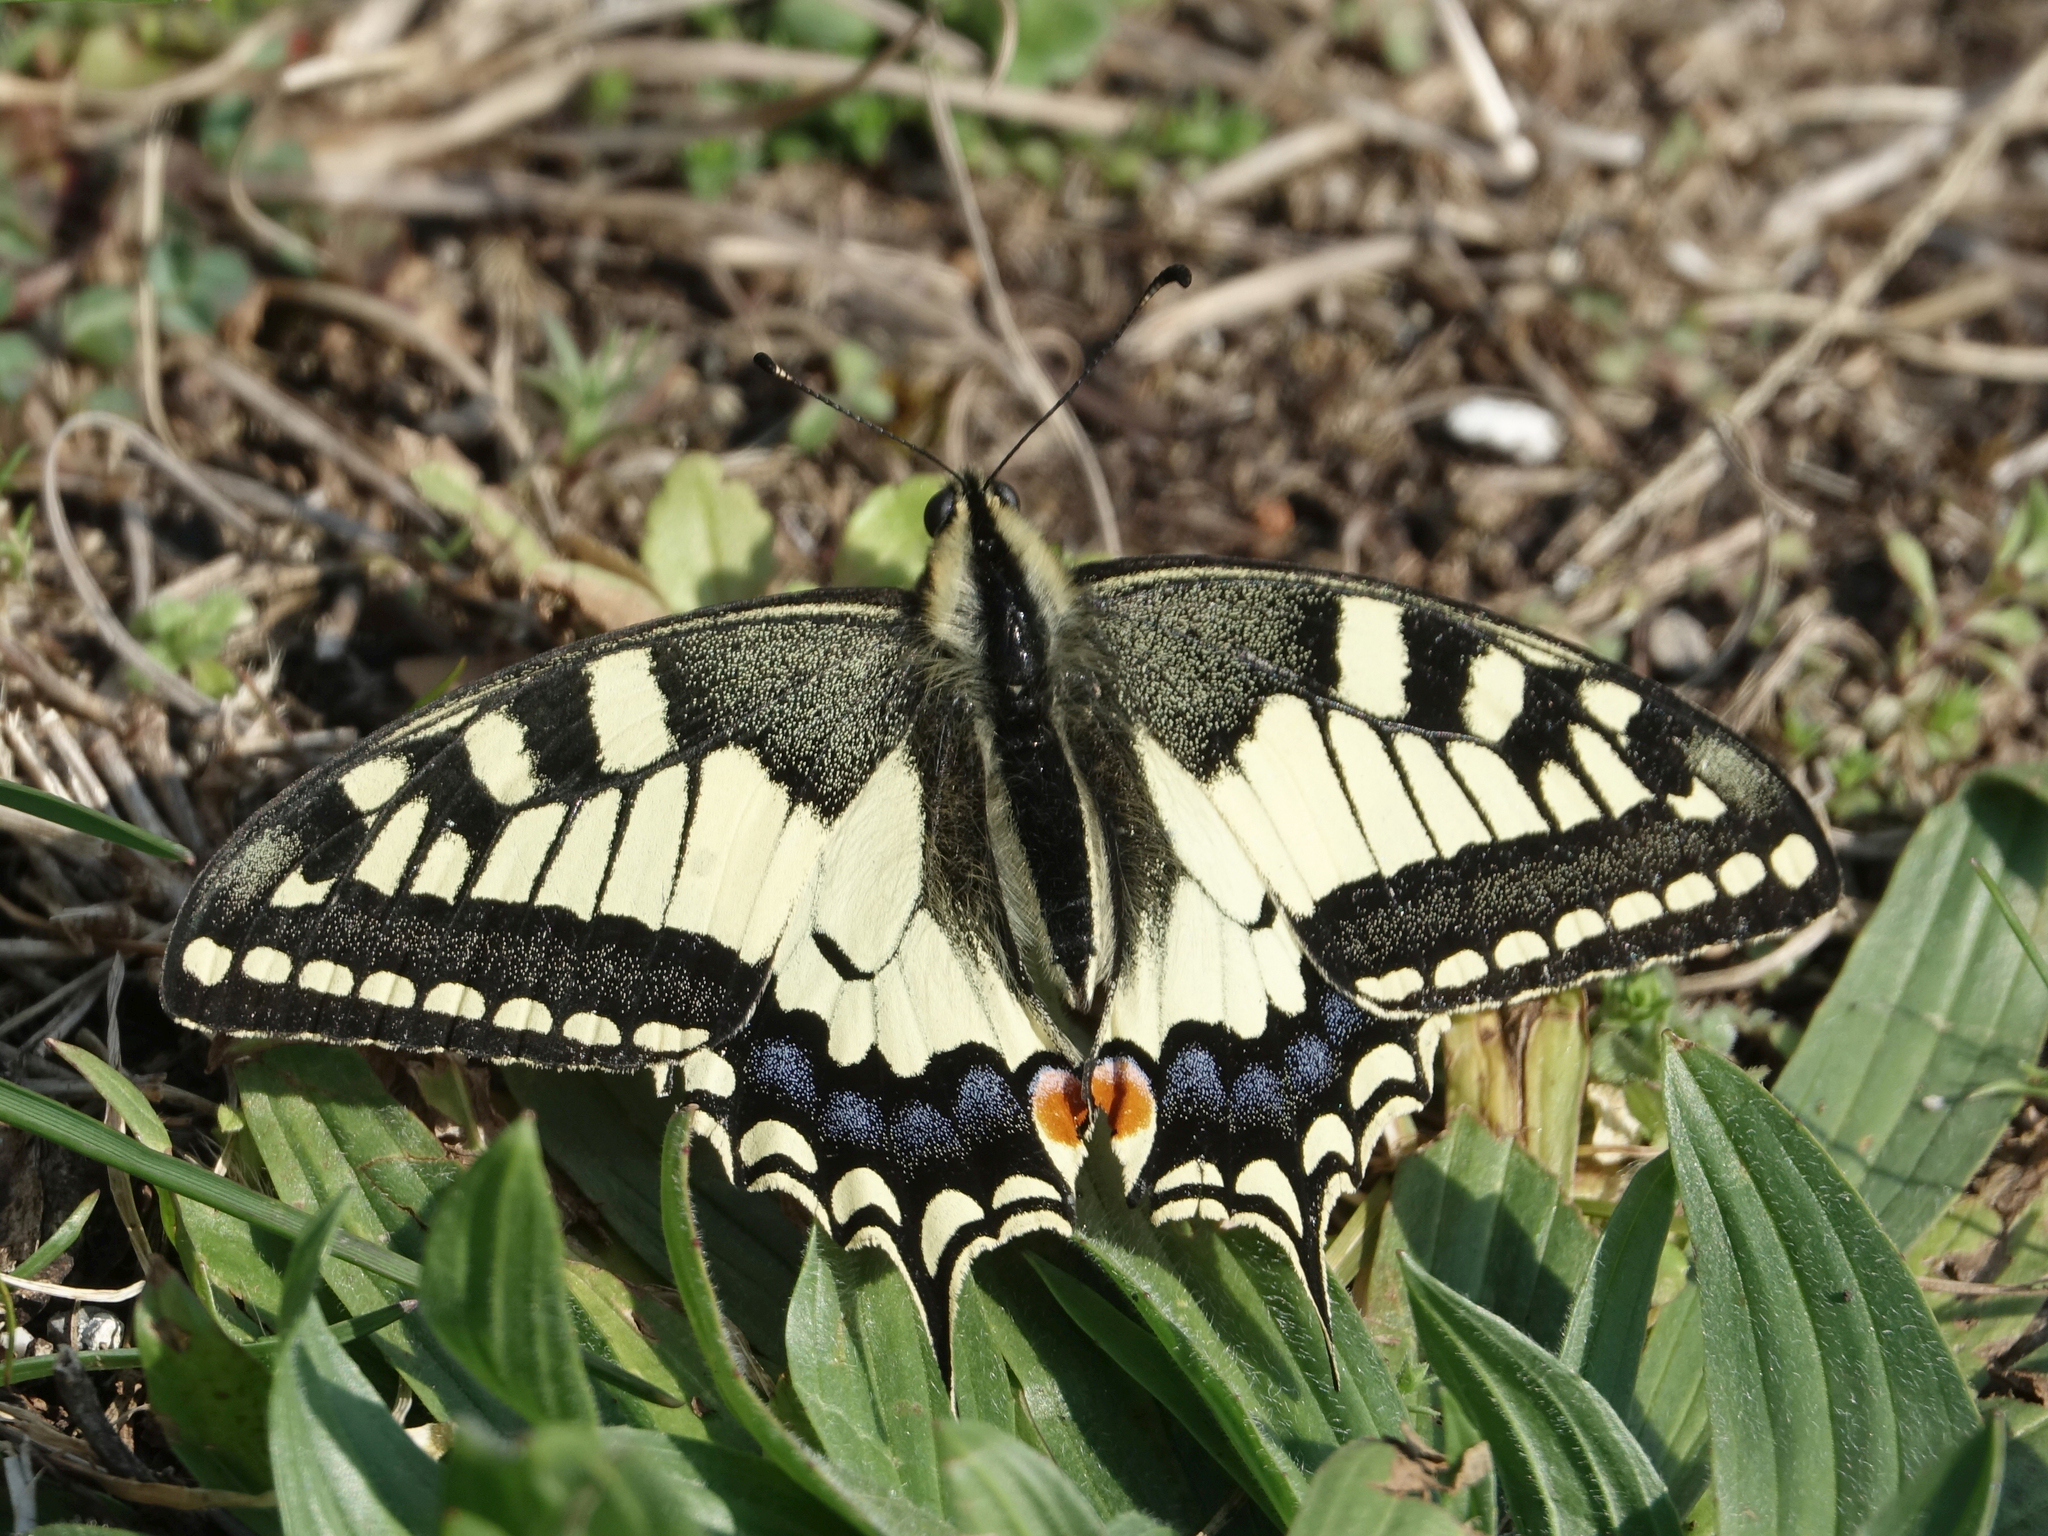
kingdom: Animalia
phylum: Arthropoda
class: Insecta
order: Lepidoptera
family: Papilionidae
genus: Papilio
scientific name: Papilio machaon
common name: Swallowtail
